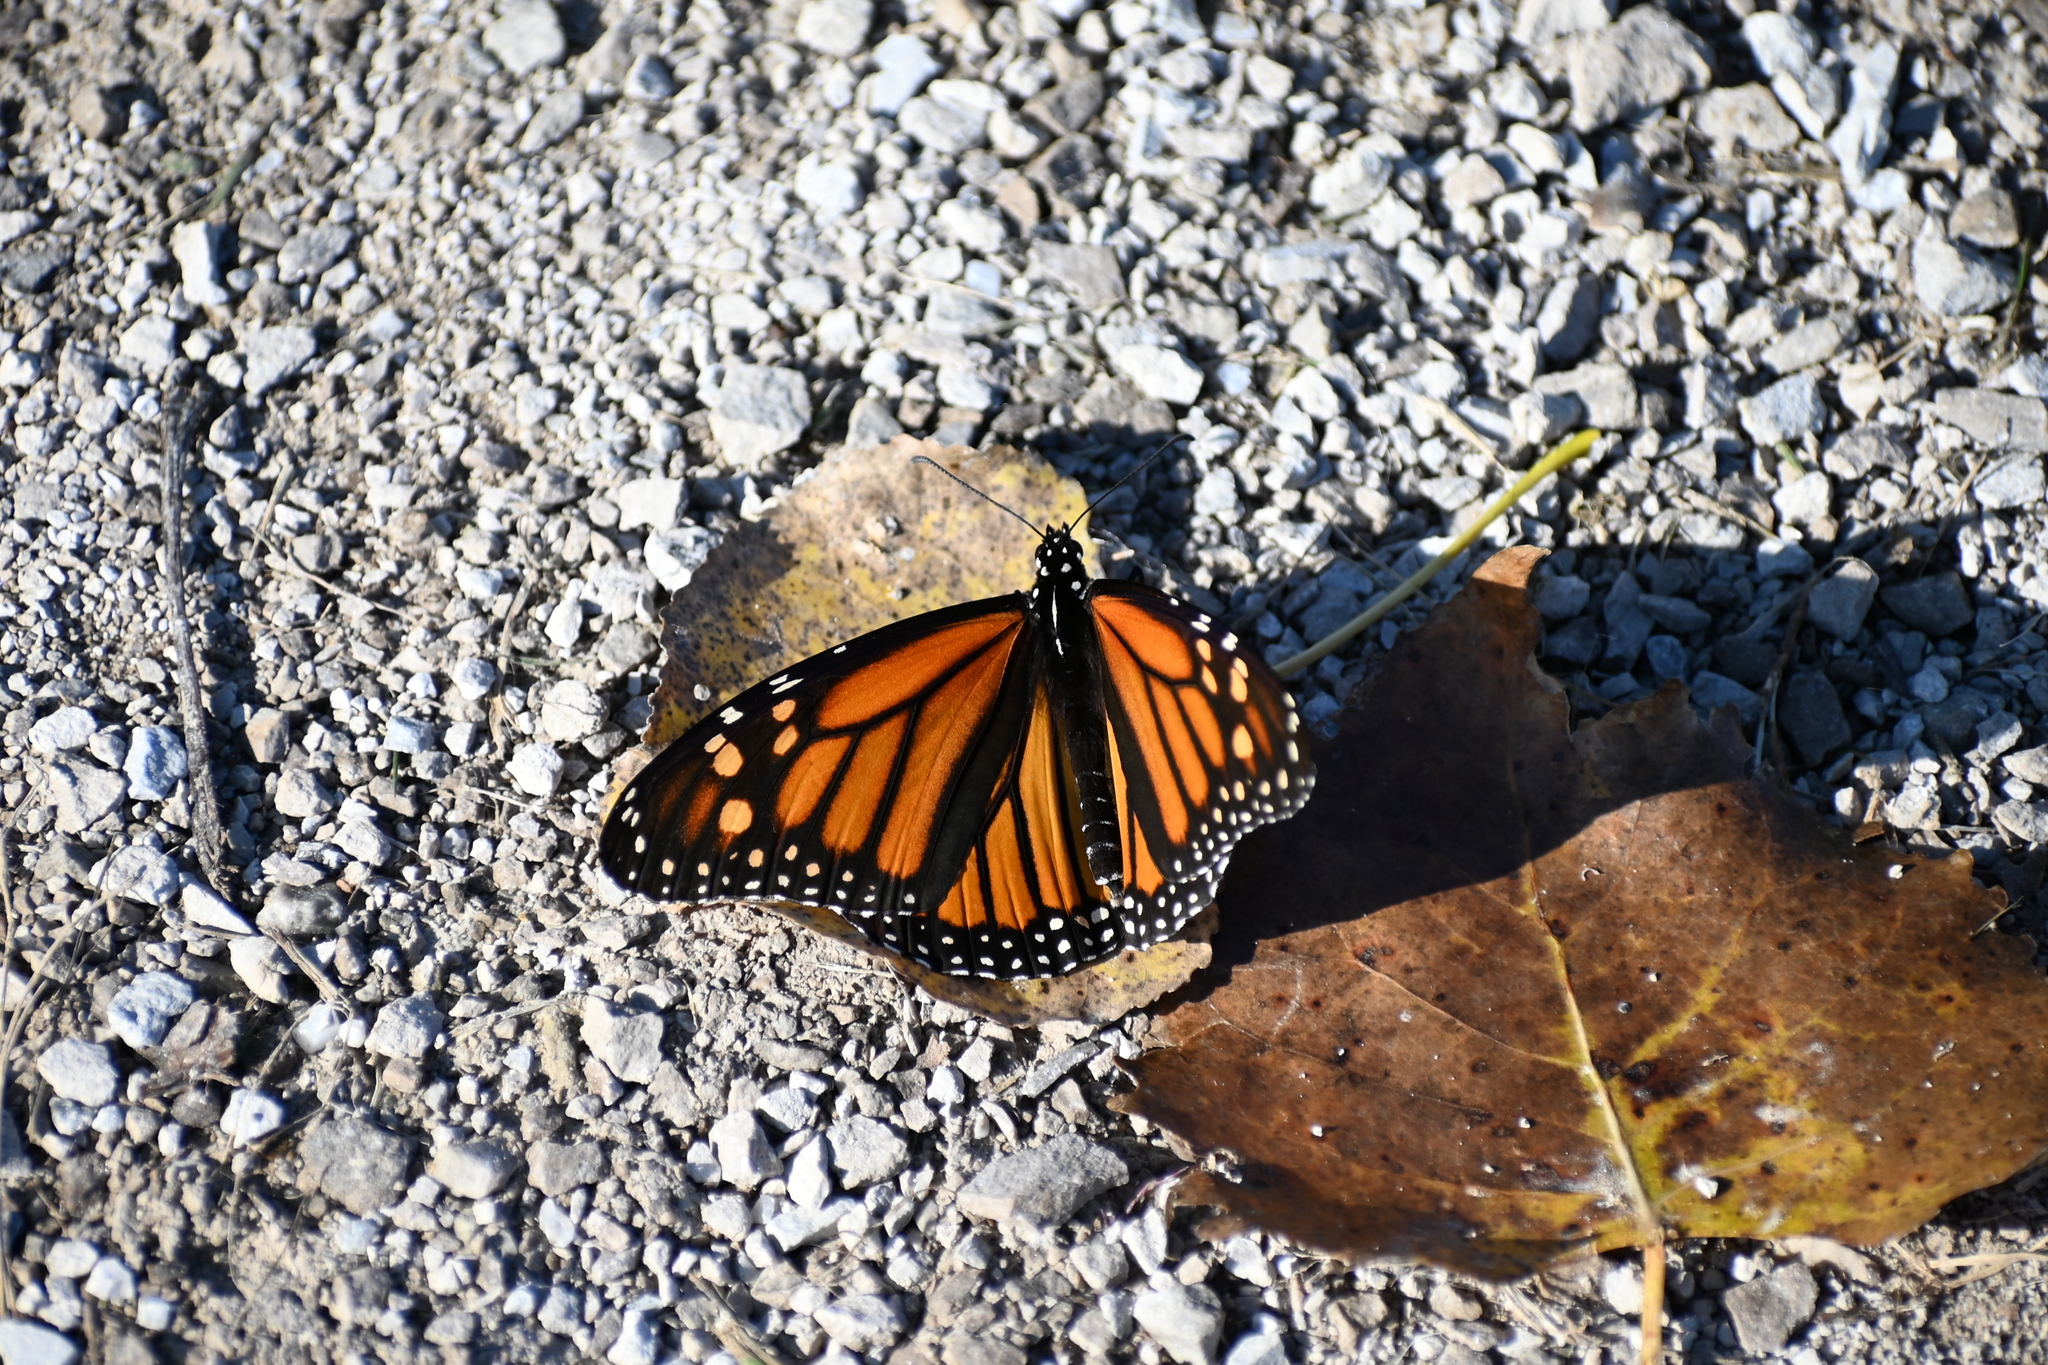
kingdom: Animalia
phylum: Arthropoda
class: Insecta
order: Lepidoptera
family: Nymphalidae
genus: Danaus
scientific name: Danaus plexippus
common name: Monarch
